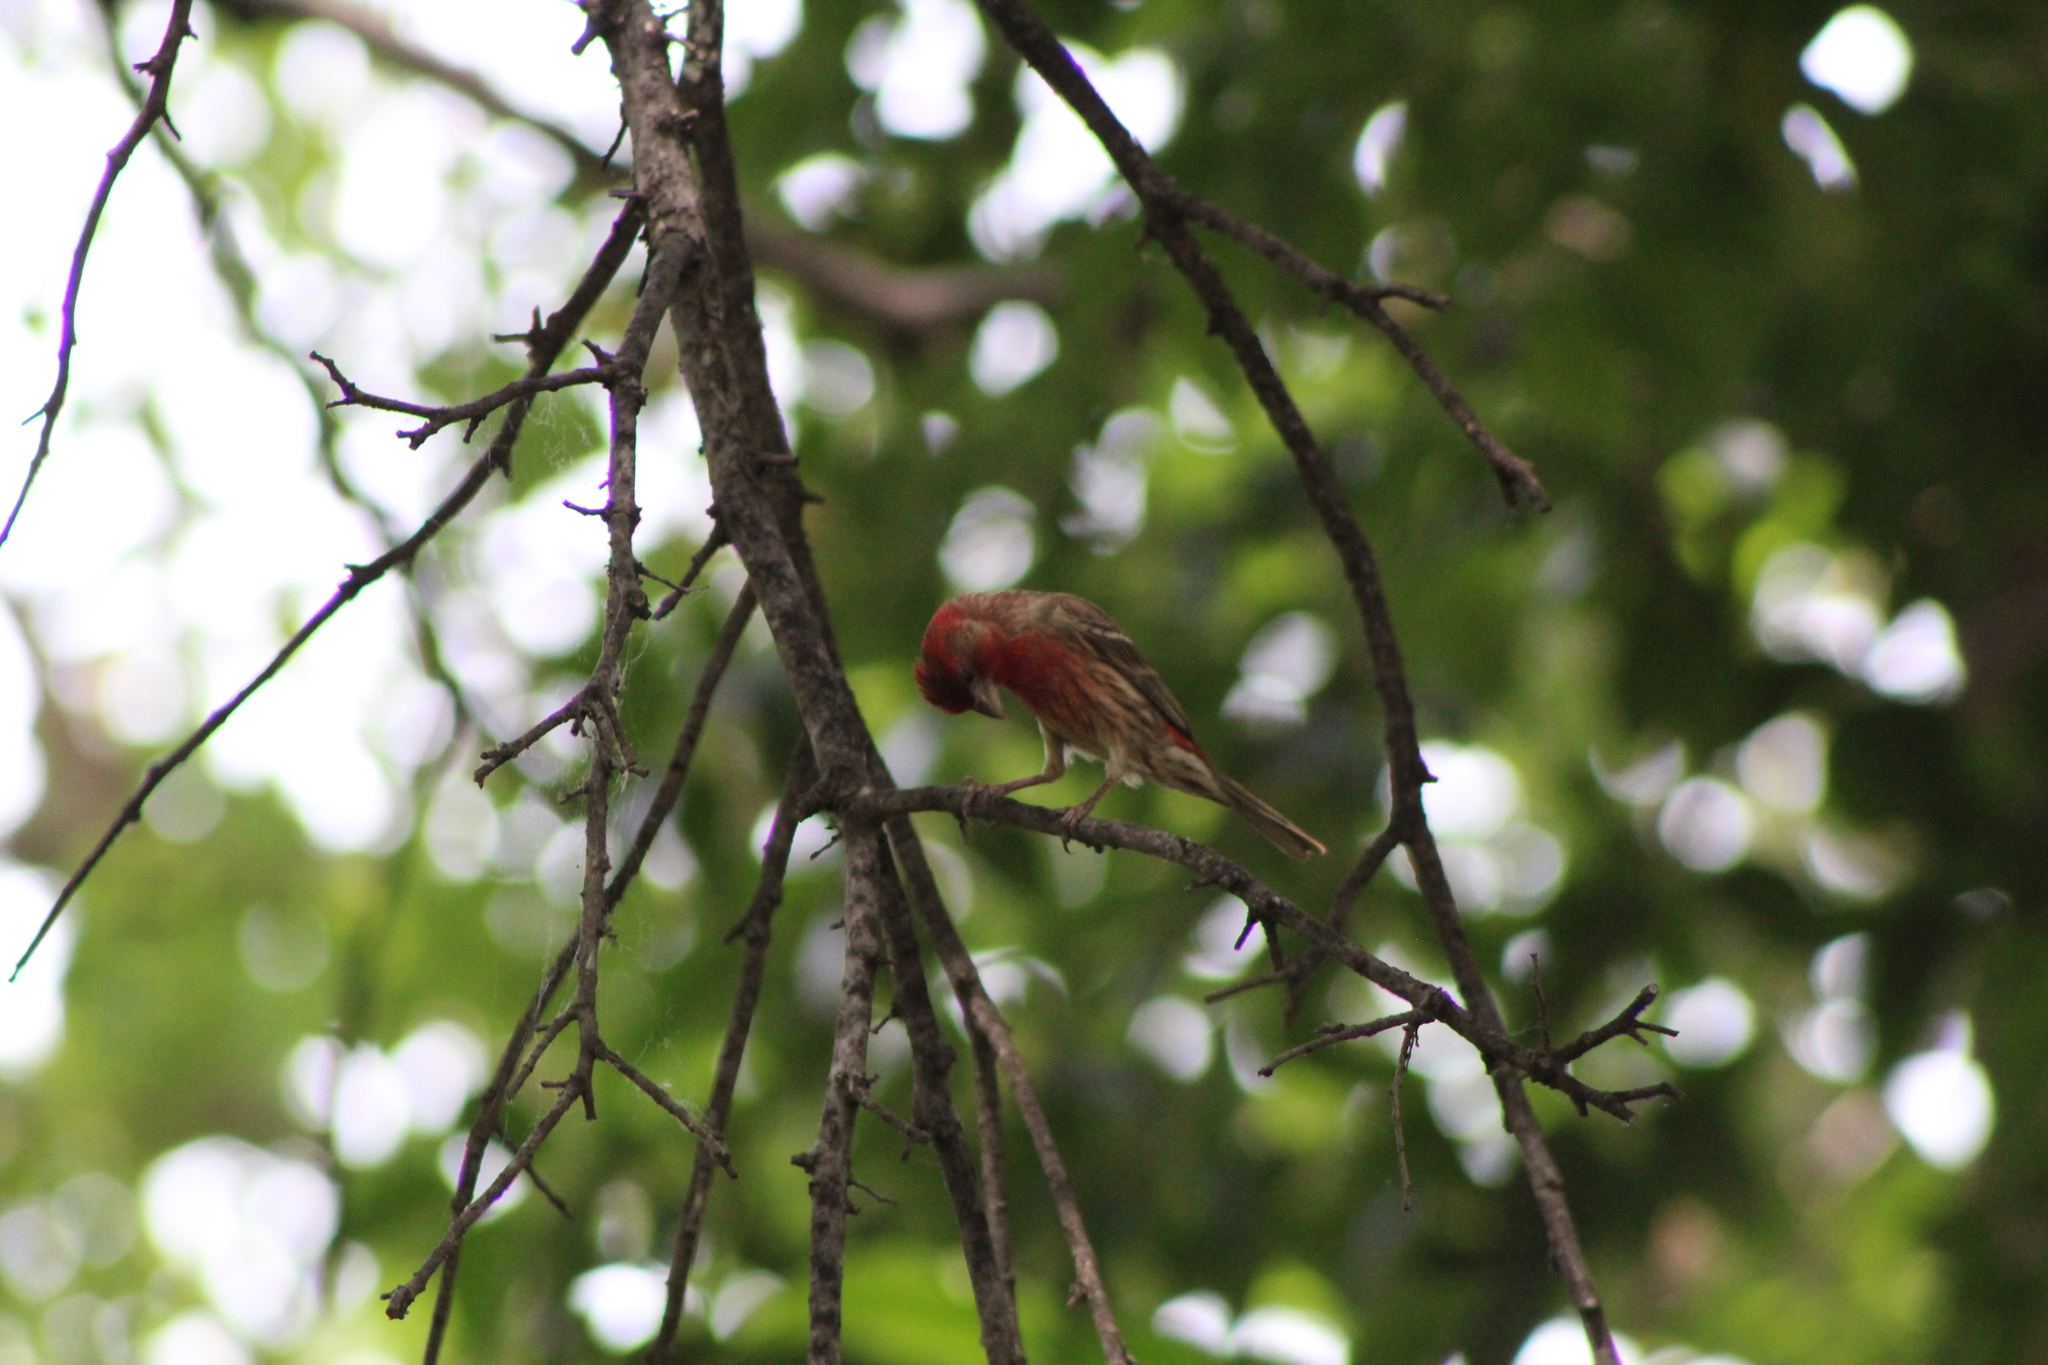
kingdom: Animalia
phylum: Chordata
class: Aves
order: Passeriformes
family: Fringillidae
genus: Haemorhous
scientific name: Haemorhous mexicanus
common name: House finch
